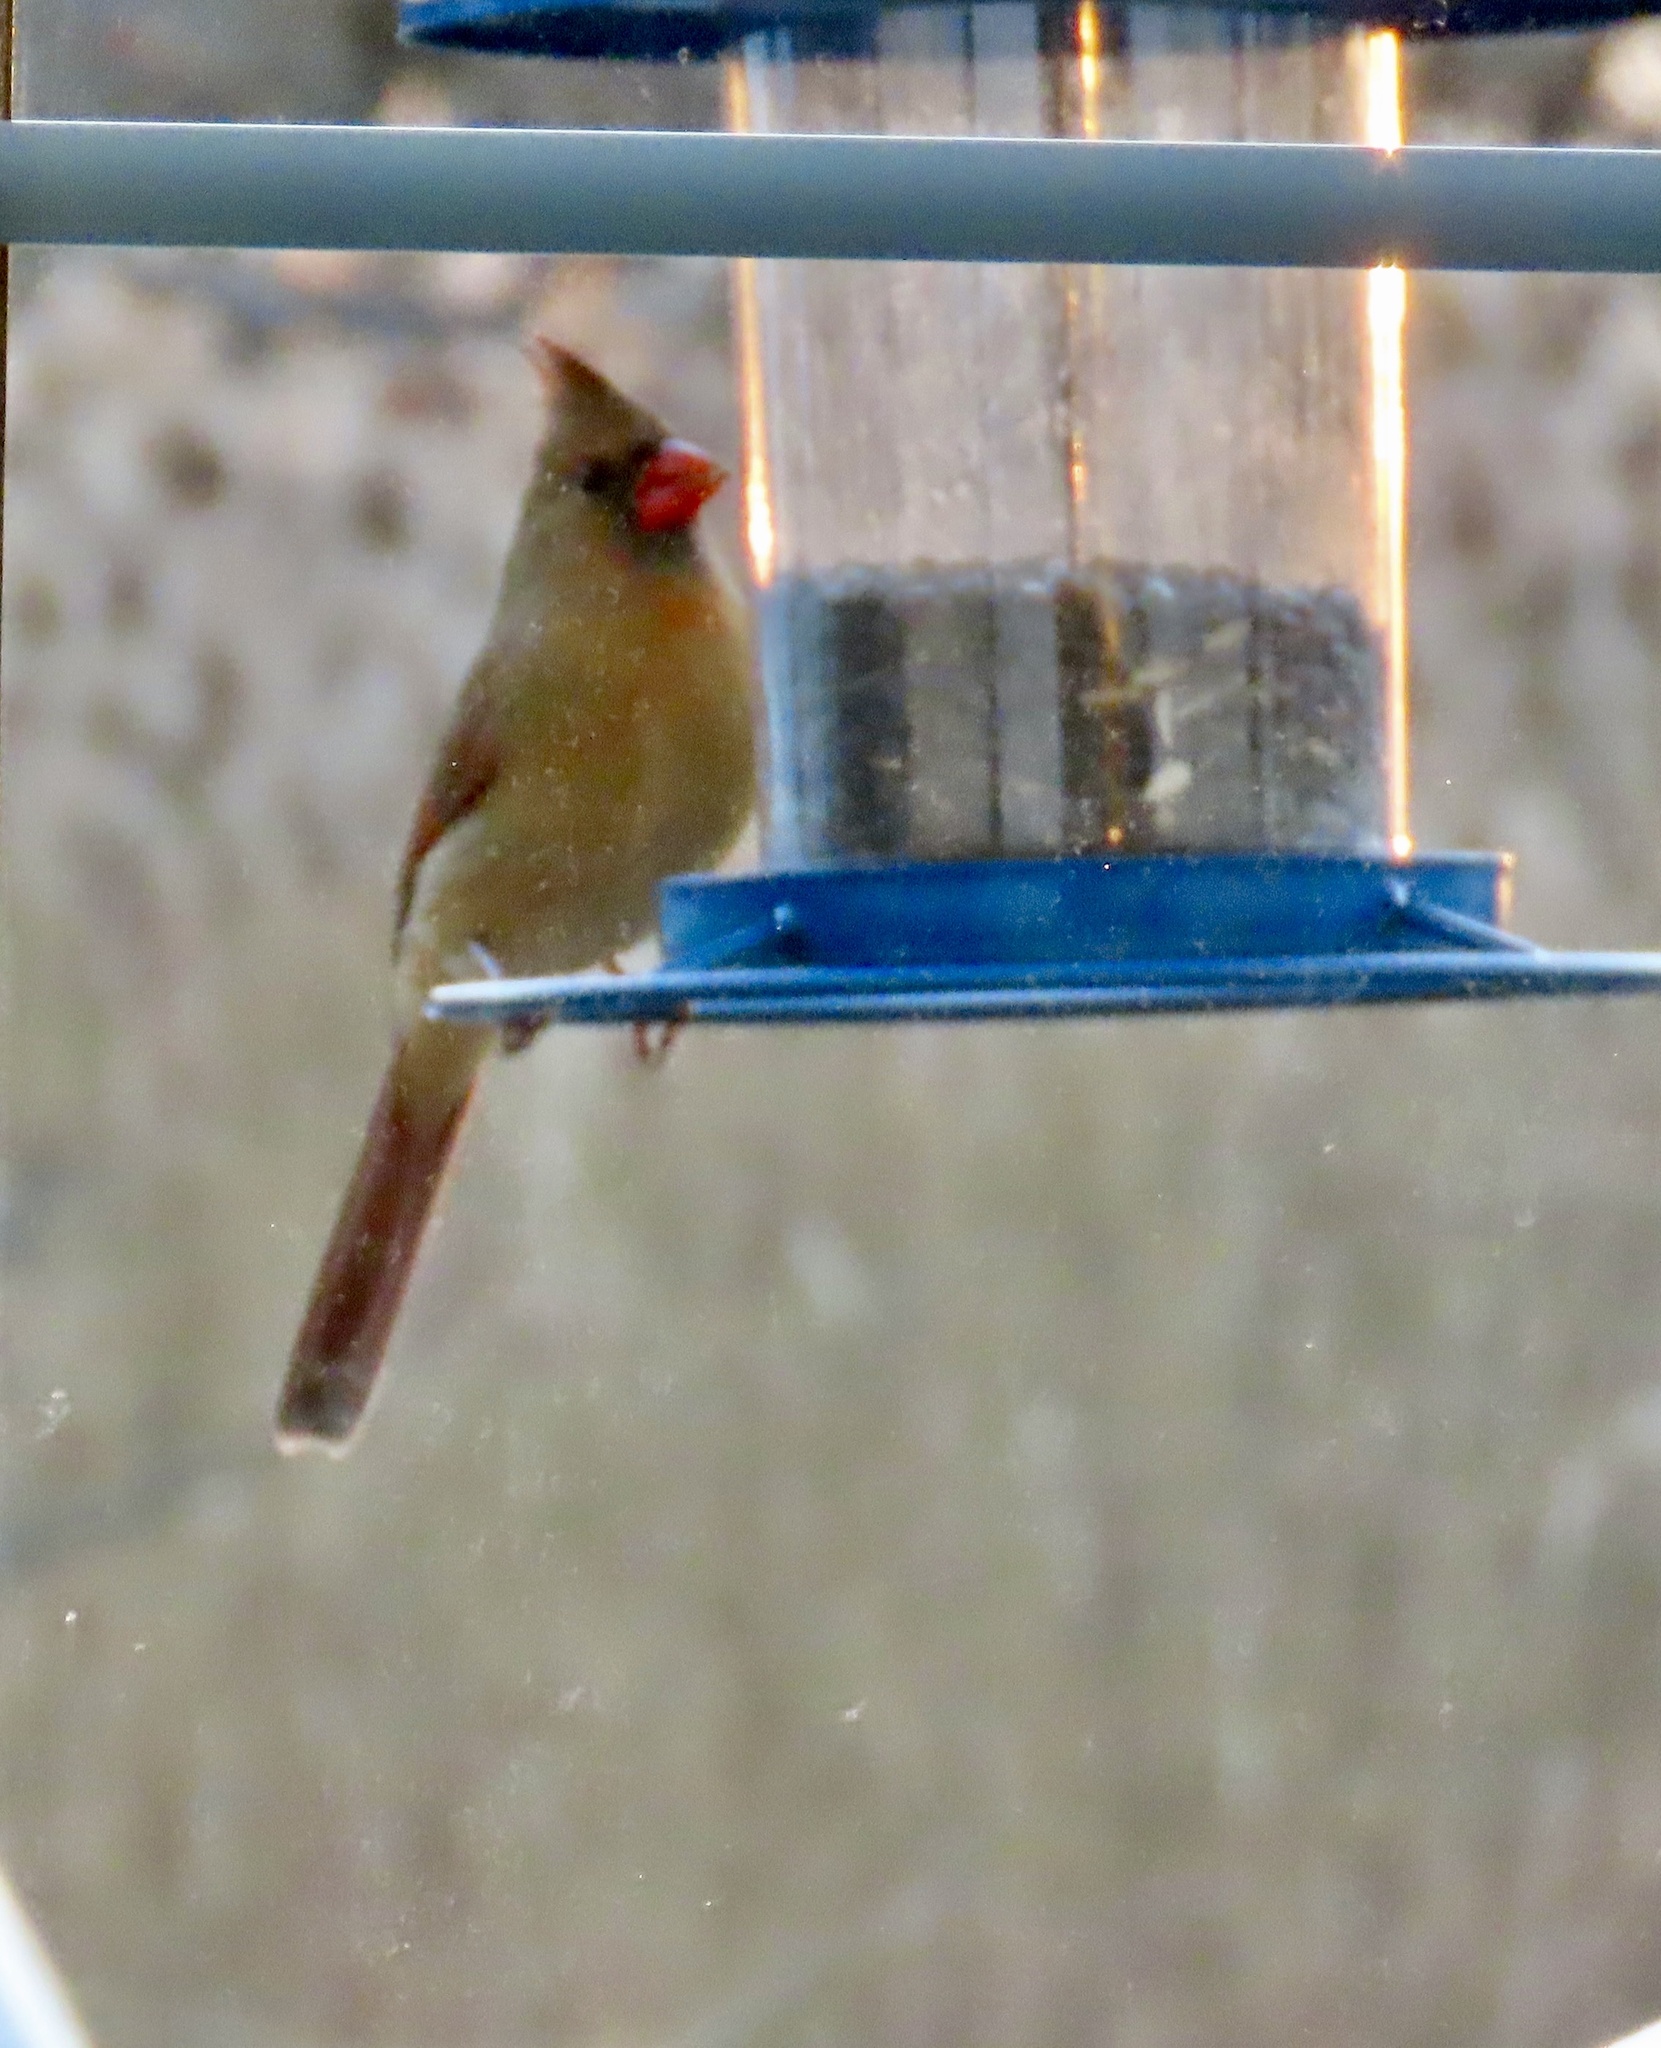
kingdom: Animalia
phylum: Chordata
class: Aves
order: Passeriformes
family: Cardinalidae
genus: Cardinalis
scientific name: Cardinalis cardinalis
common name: Northern cardinal
